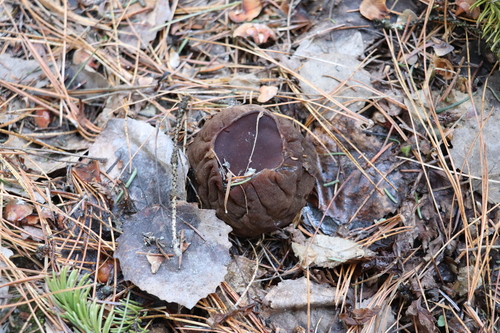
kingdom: Fungi
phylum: Ascomycota
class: Pezizomycetes
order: Pezizales
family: Sarcosomataceae
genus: Sarcosoma
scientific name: Sarcosoma globosum
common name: Charred-pancake cup
